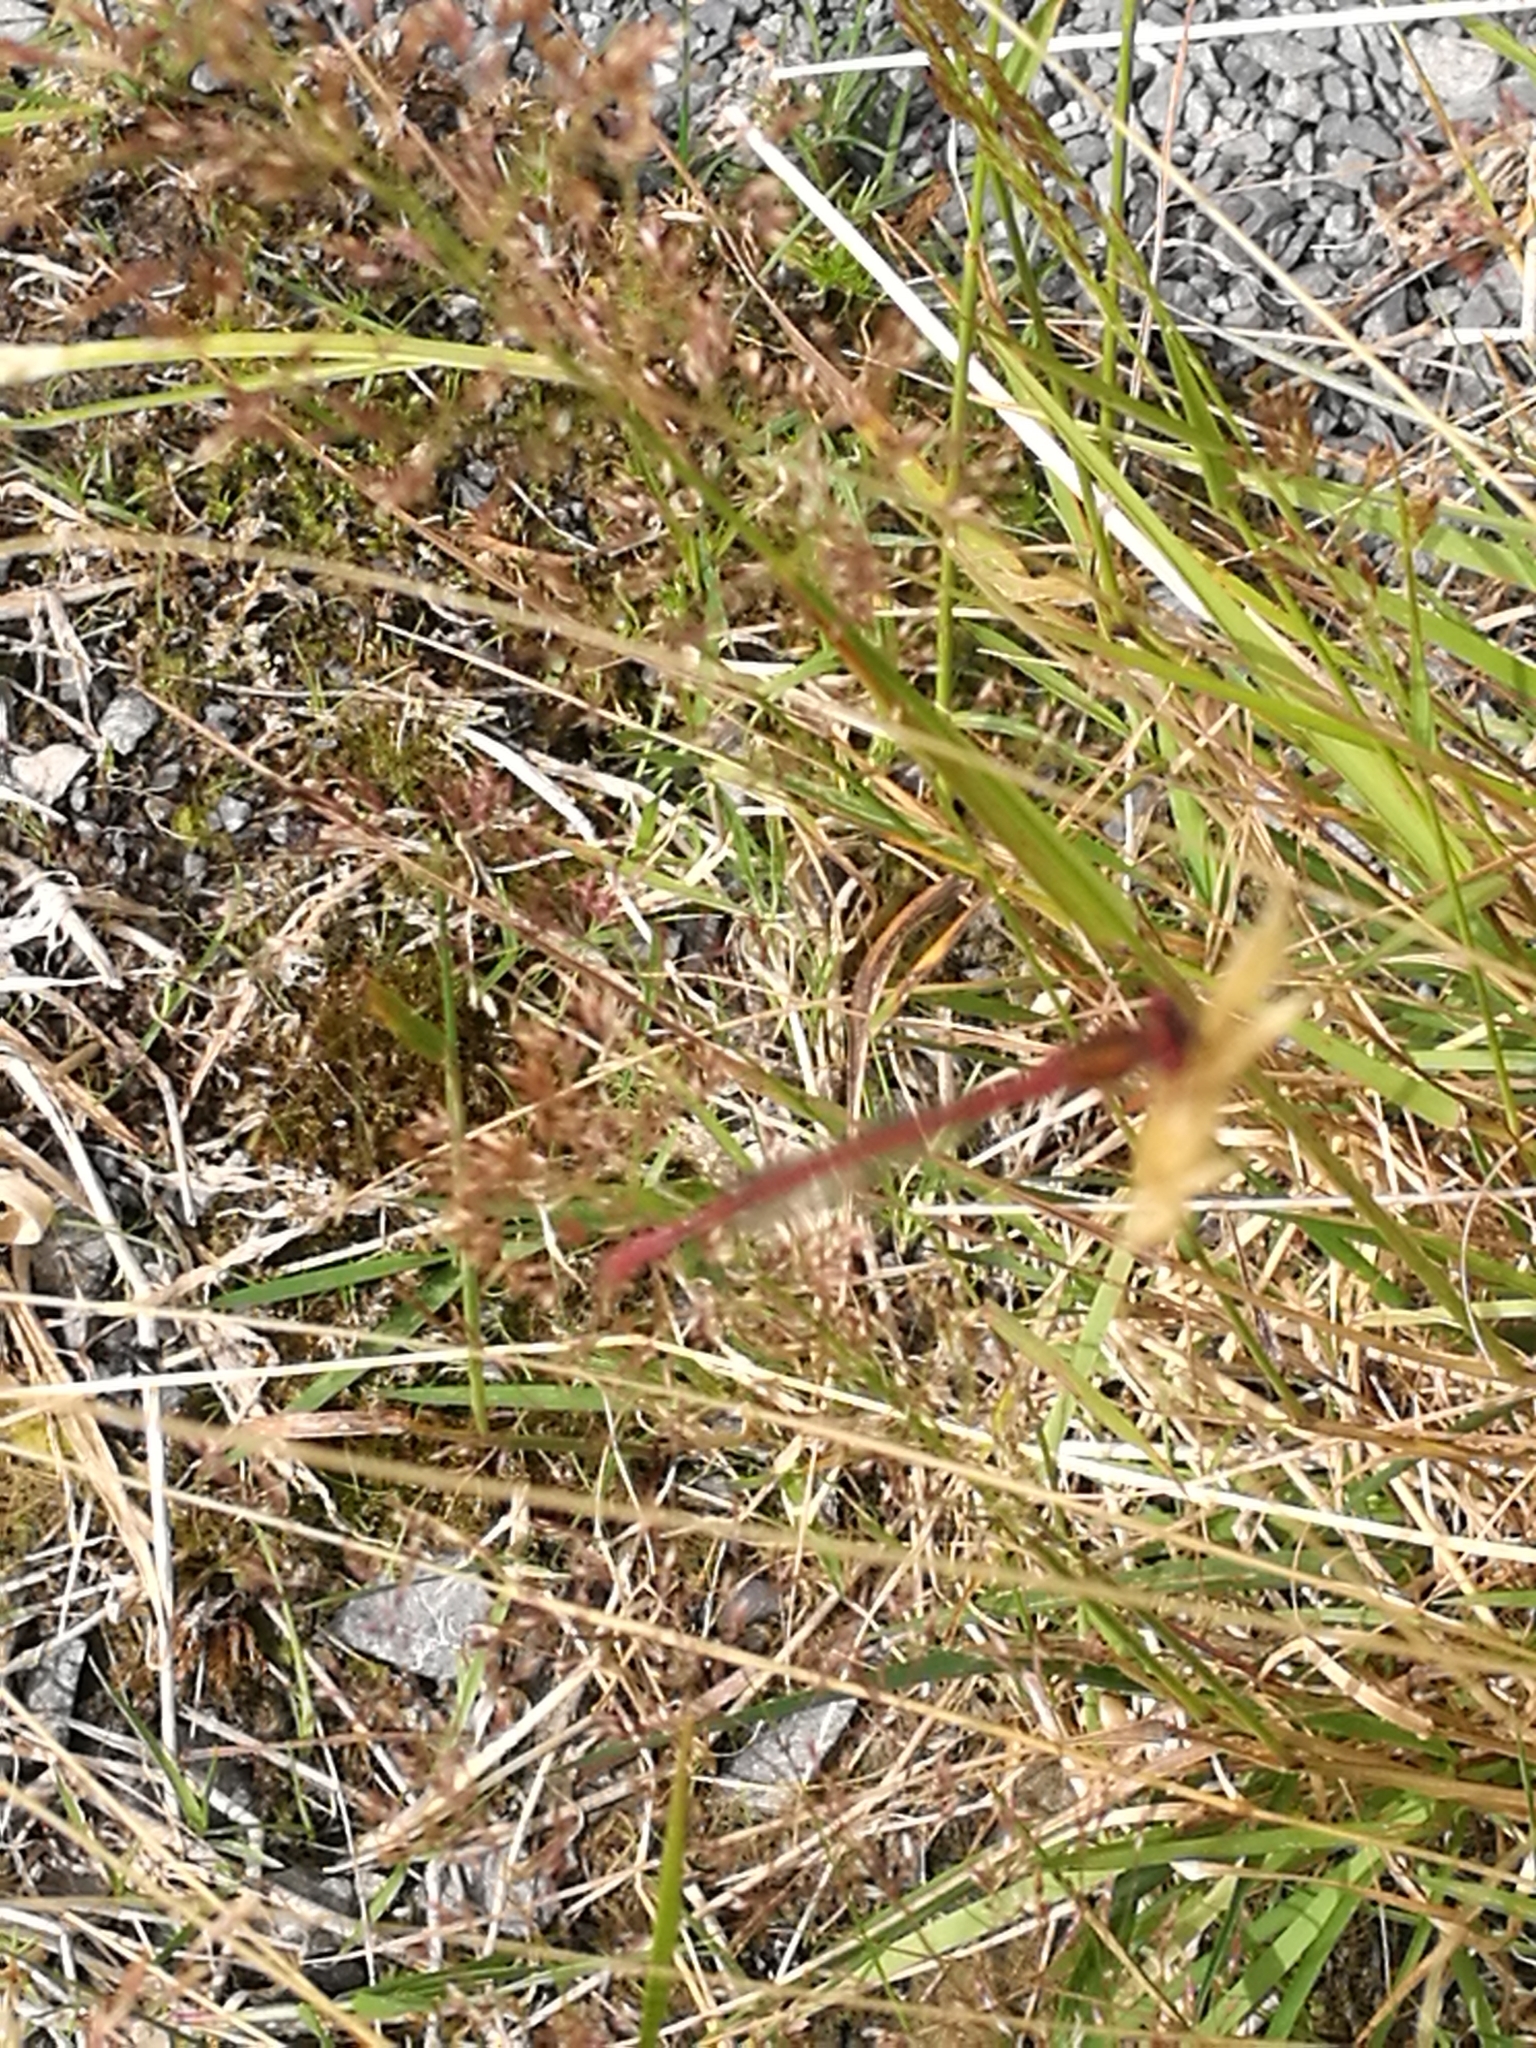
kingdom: Animalia
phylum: Arthropoda
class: Insecta
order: Odonata
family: Coenagrionidae
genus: Xanthocnemis
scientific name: Xanthocnemis zealandica
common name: Common redcoat damselfly
